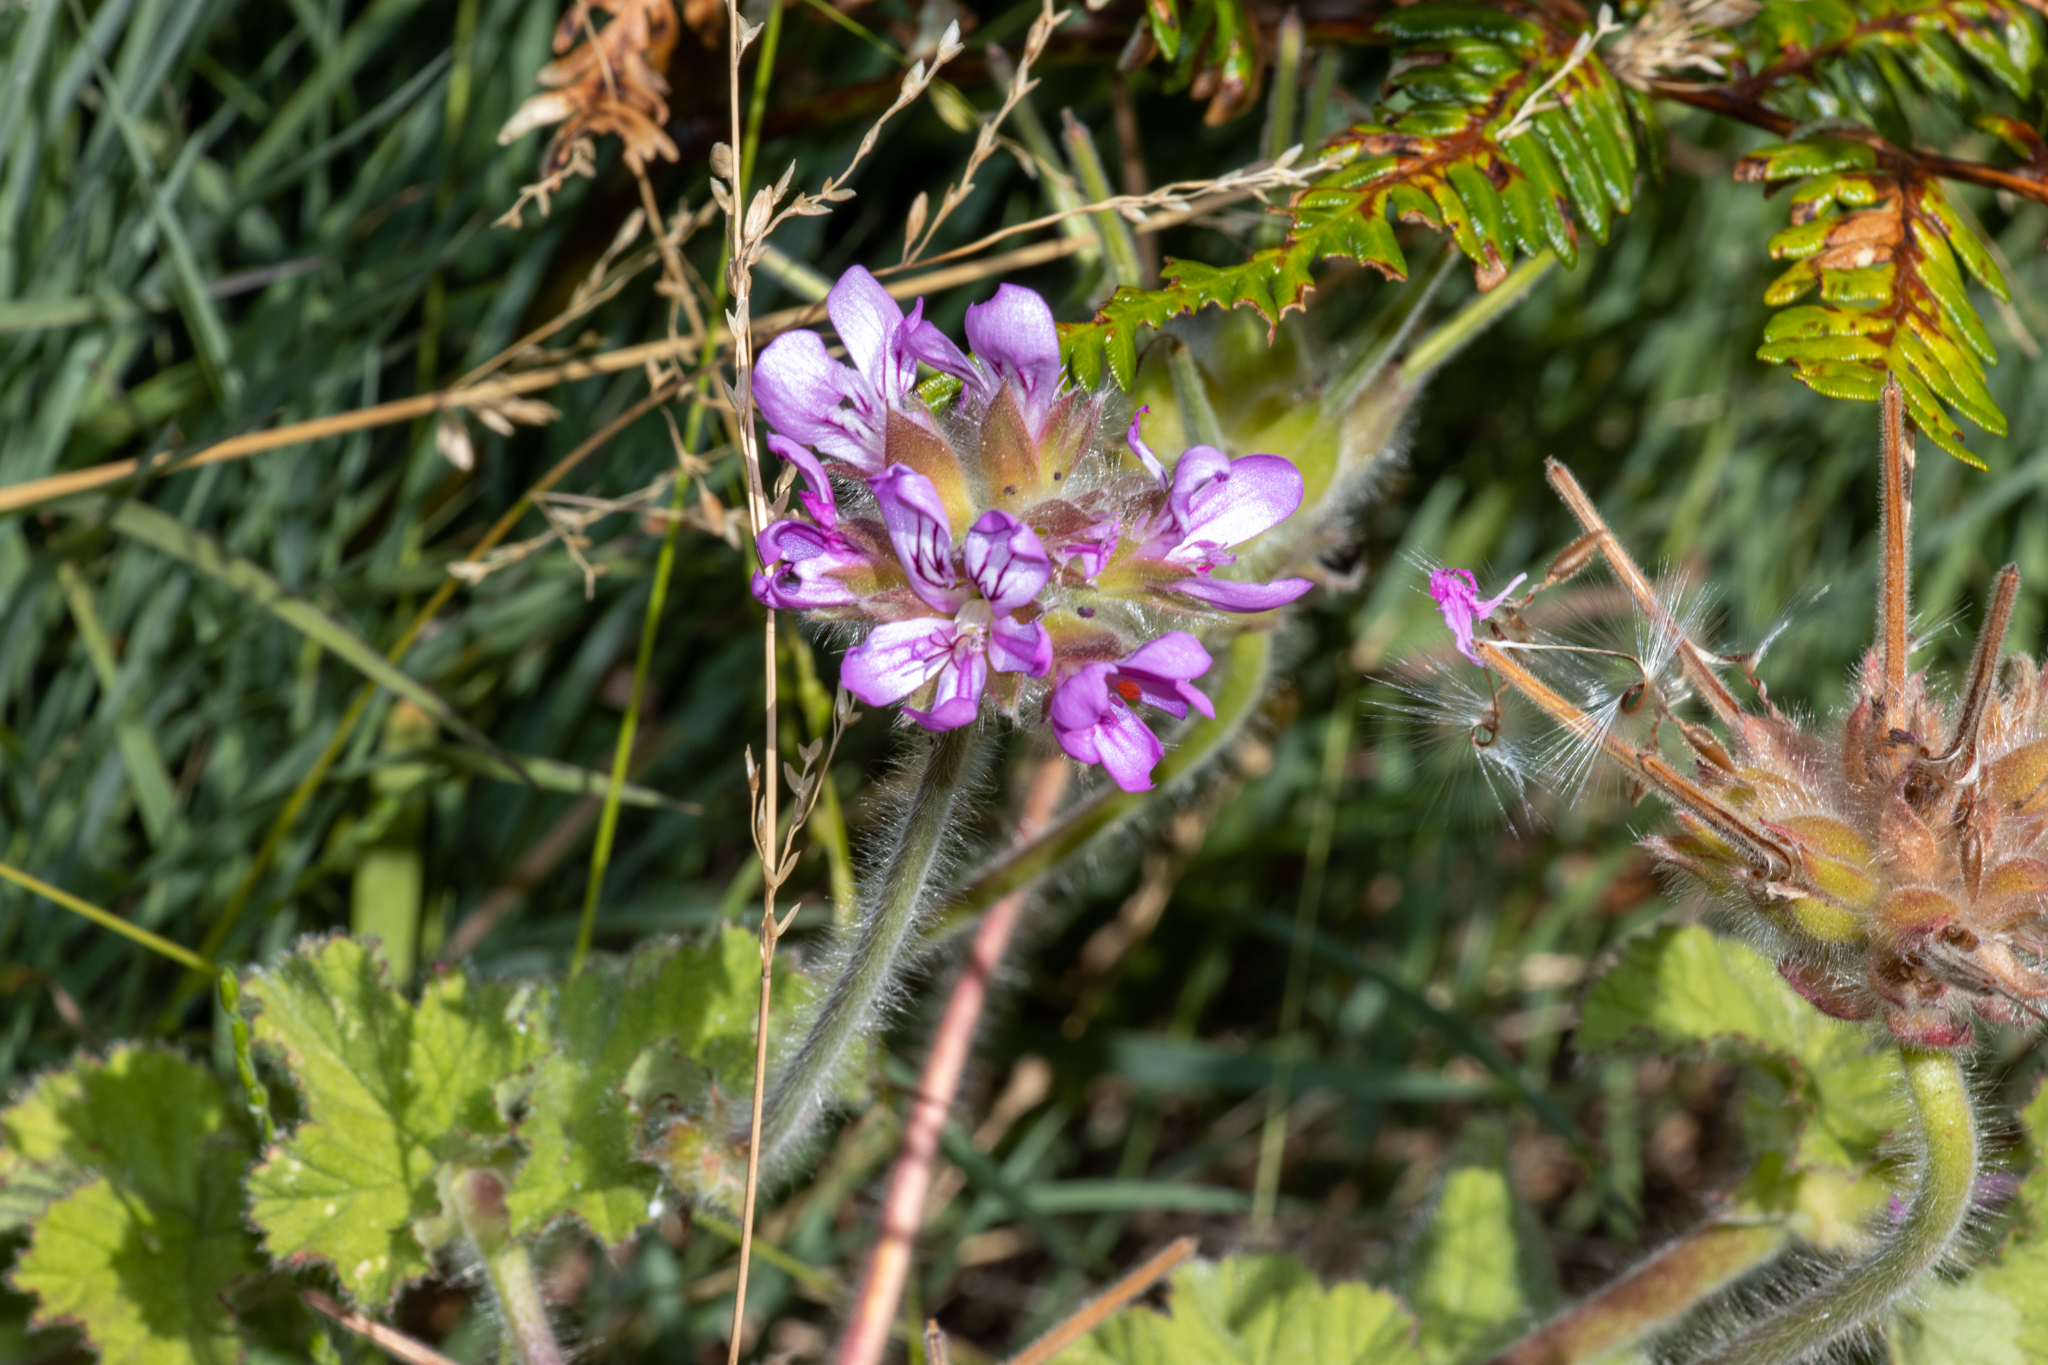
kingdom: Plantae
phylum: Tracheophyta
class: Magnoliopsida
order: Geraniales
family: Geraniaceae
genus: Pelargonium
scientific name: Pelargonium capitatum
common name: Rose scented geranium
